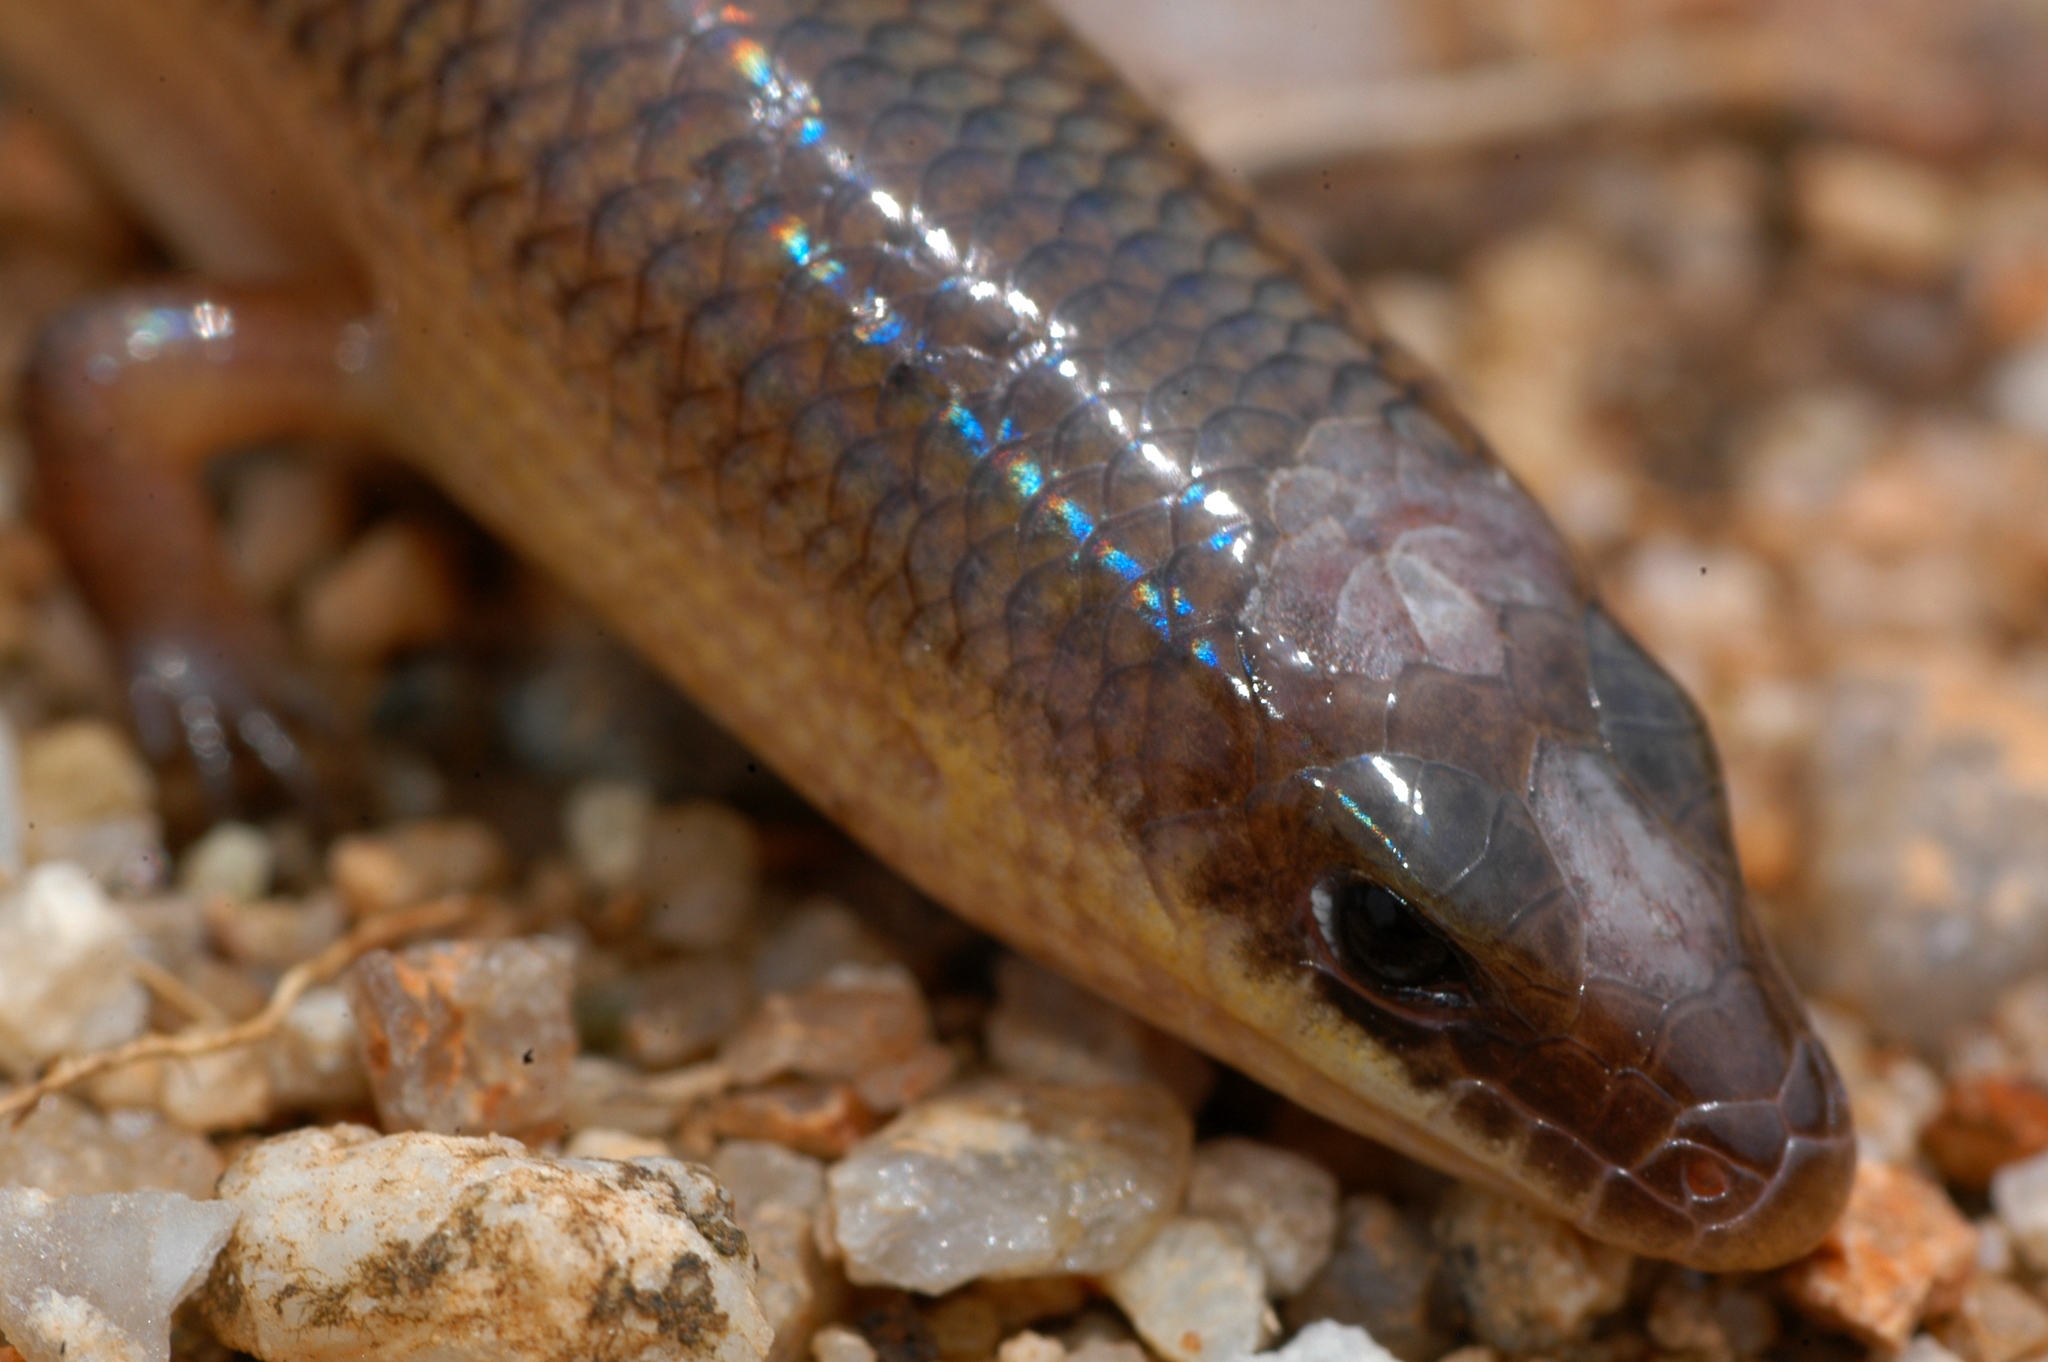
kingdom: Animalia
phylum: Chordata
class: Squamata
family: Scincidae
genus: Mochlus
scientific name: Mochlus sundevallii
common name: Peters' eyelid skink
